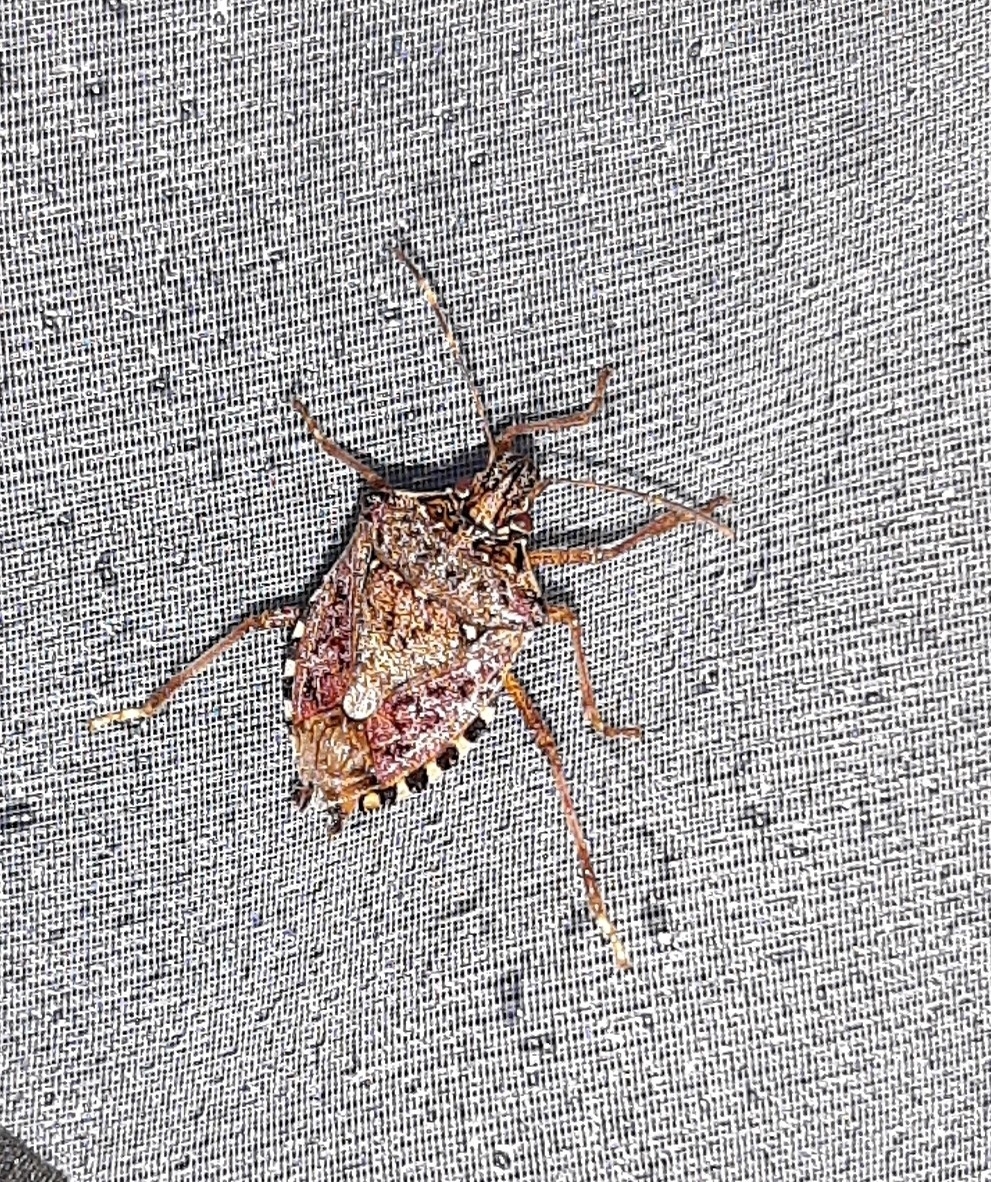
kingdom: Animalia
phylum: Arthropoda
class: Insecta
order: Hemiptera
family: Pentatomidae
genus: Halyomorpha
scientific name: Halyomorpha halys
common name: Brown marmorated stink bug
